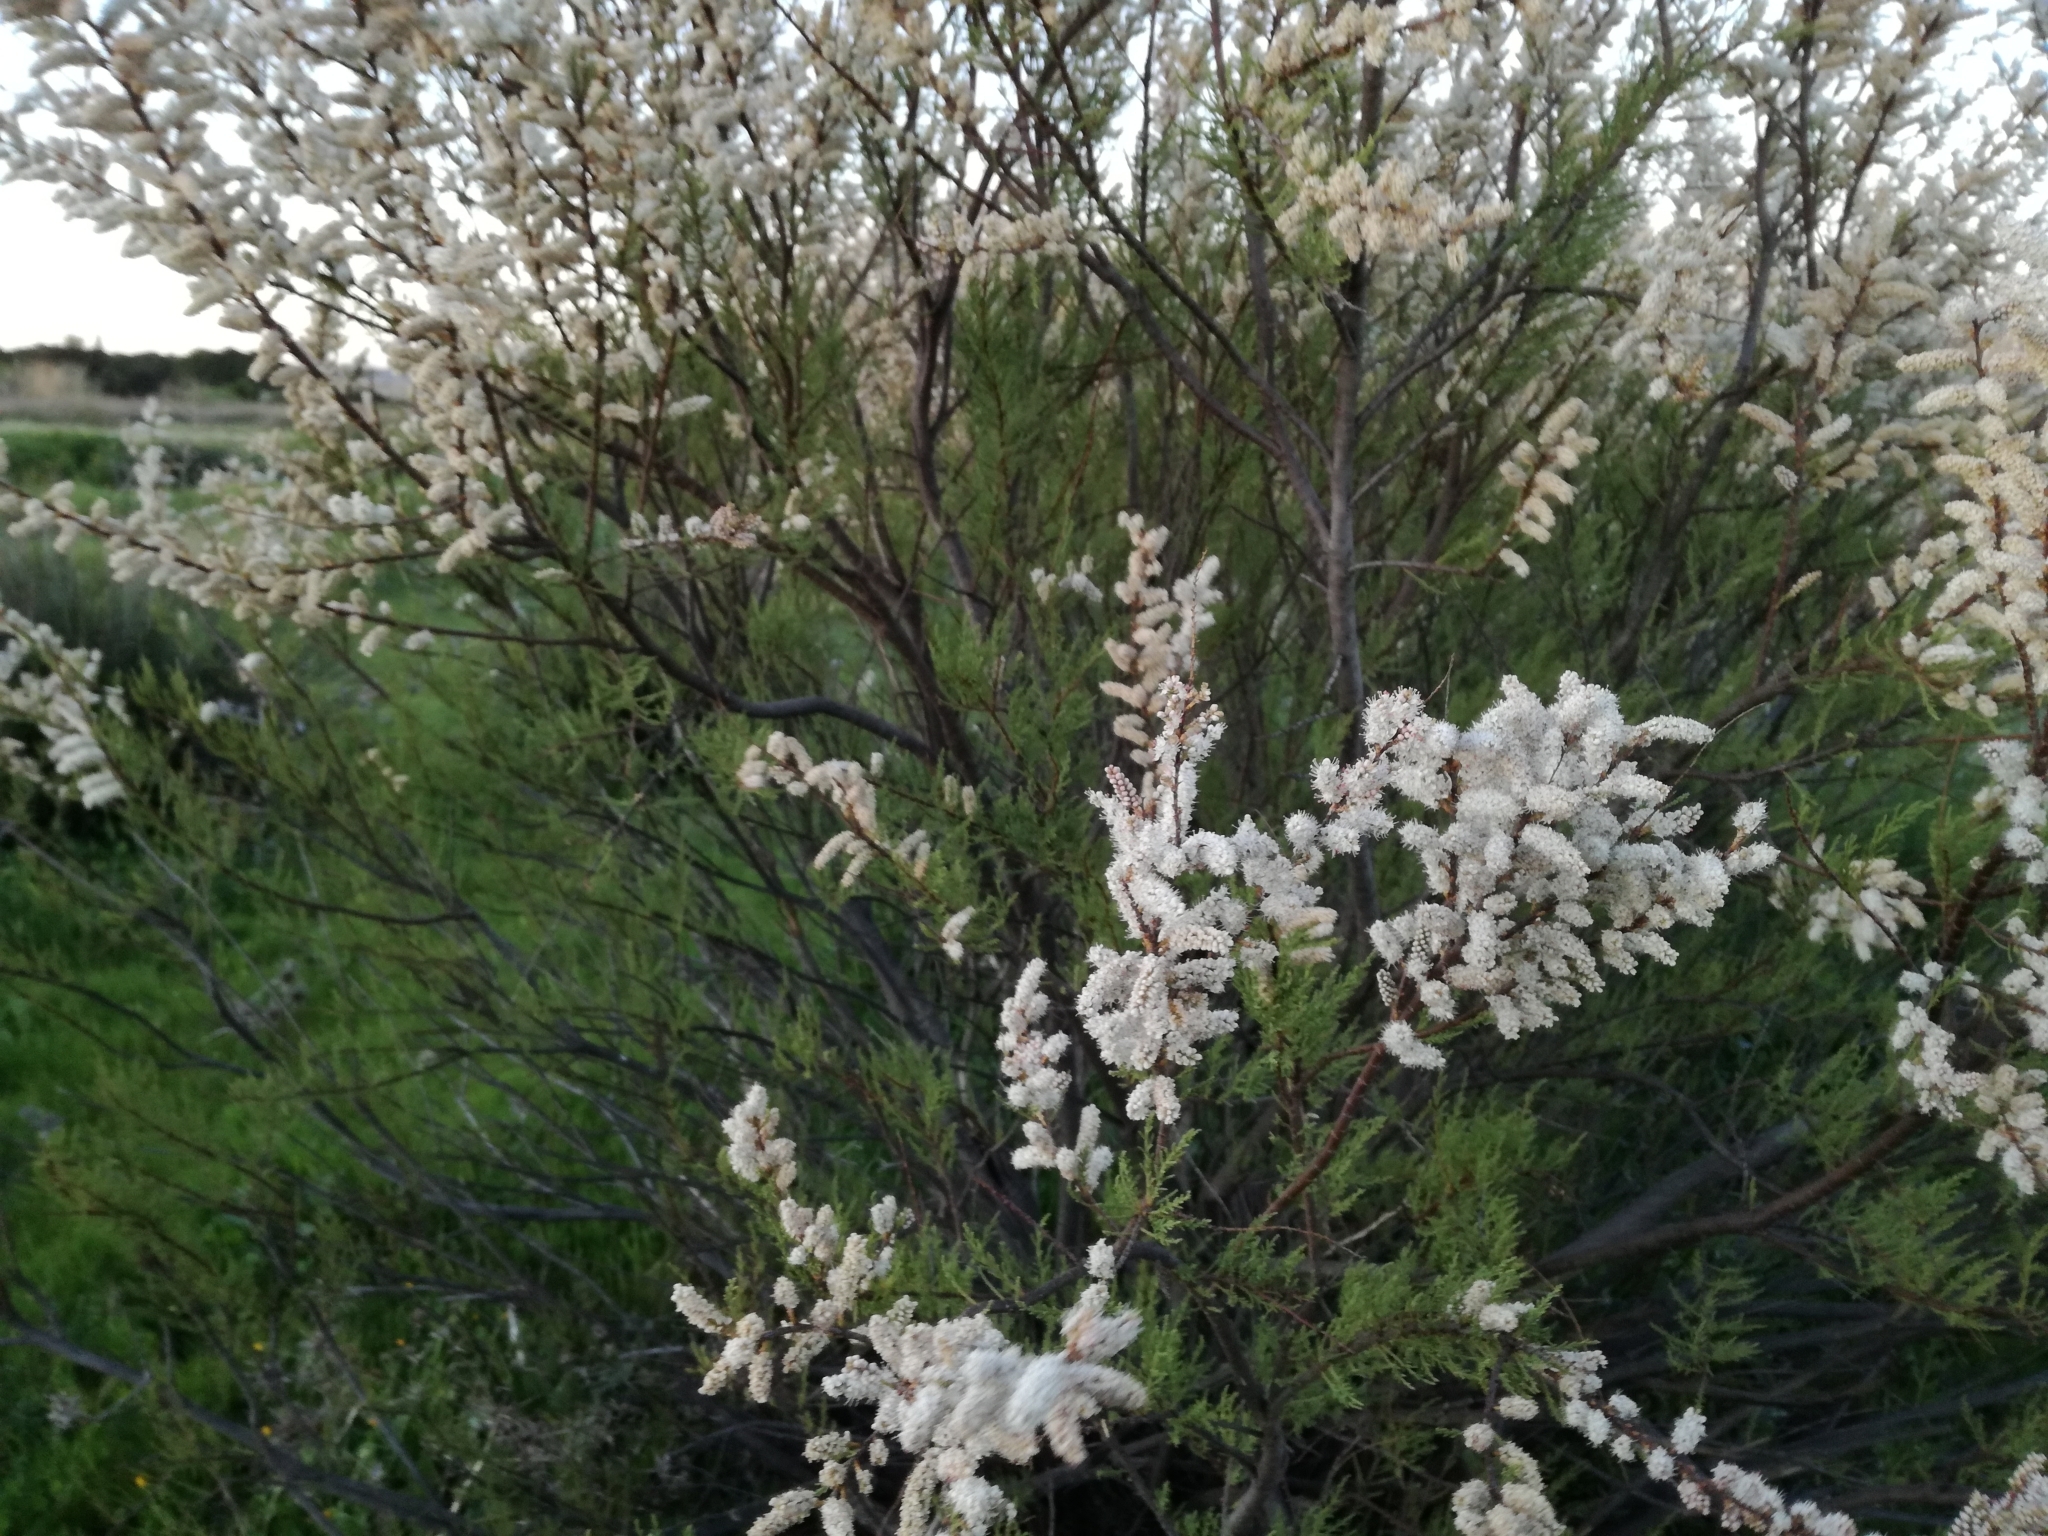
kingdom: Plantae
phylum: Tracheophyta
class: Magnoliopsida
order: Caryophyllales
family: Tamaricaceae
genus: Tamarix
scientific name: Tamarix africana
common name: African tamarisk
